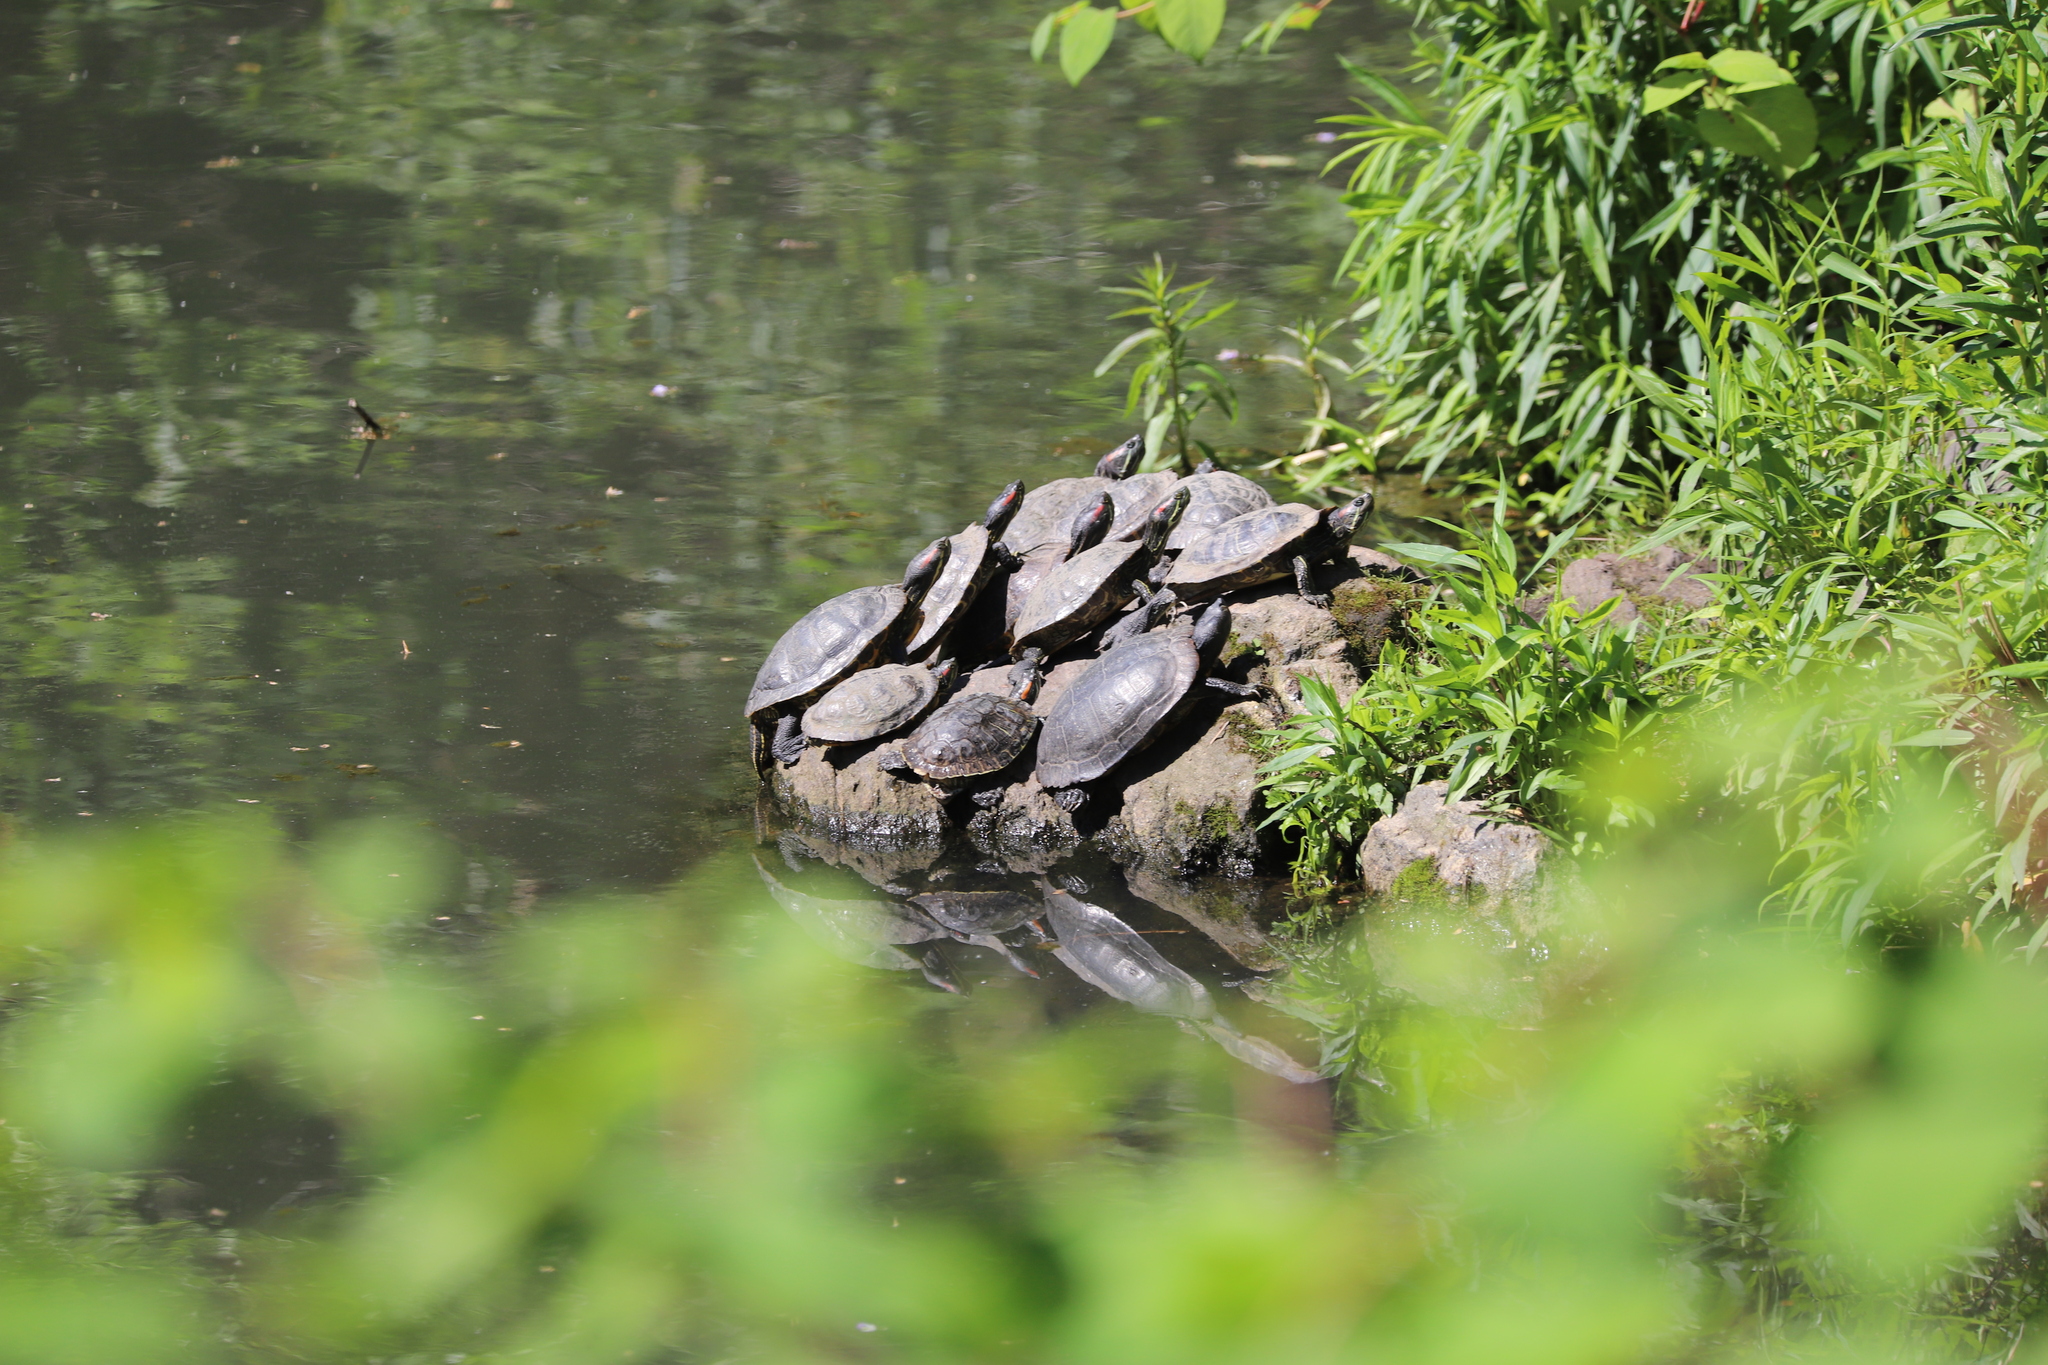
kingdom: Animalia
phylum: Chordata
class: Testudines
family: Emydidae
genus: Trachemys
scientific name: Trachemys scripta
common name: Slider
